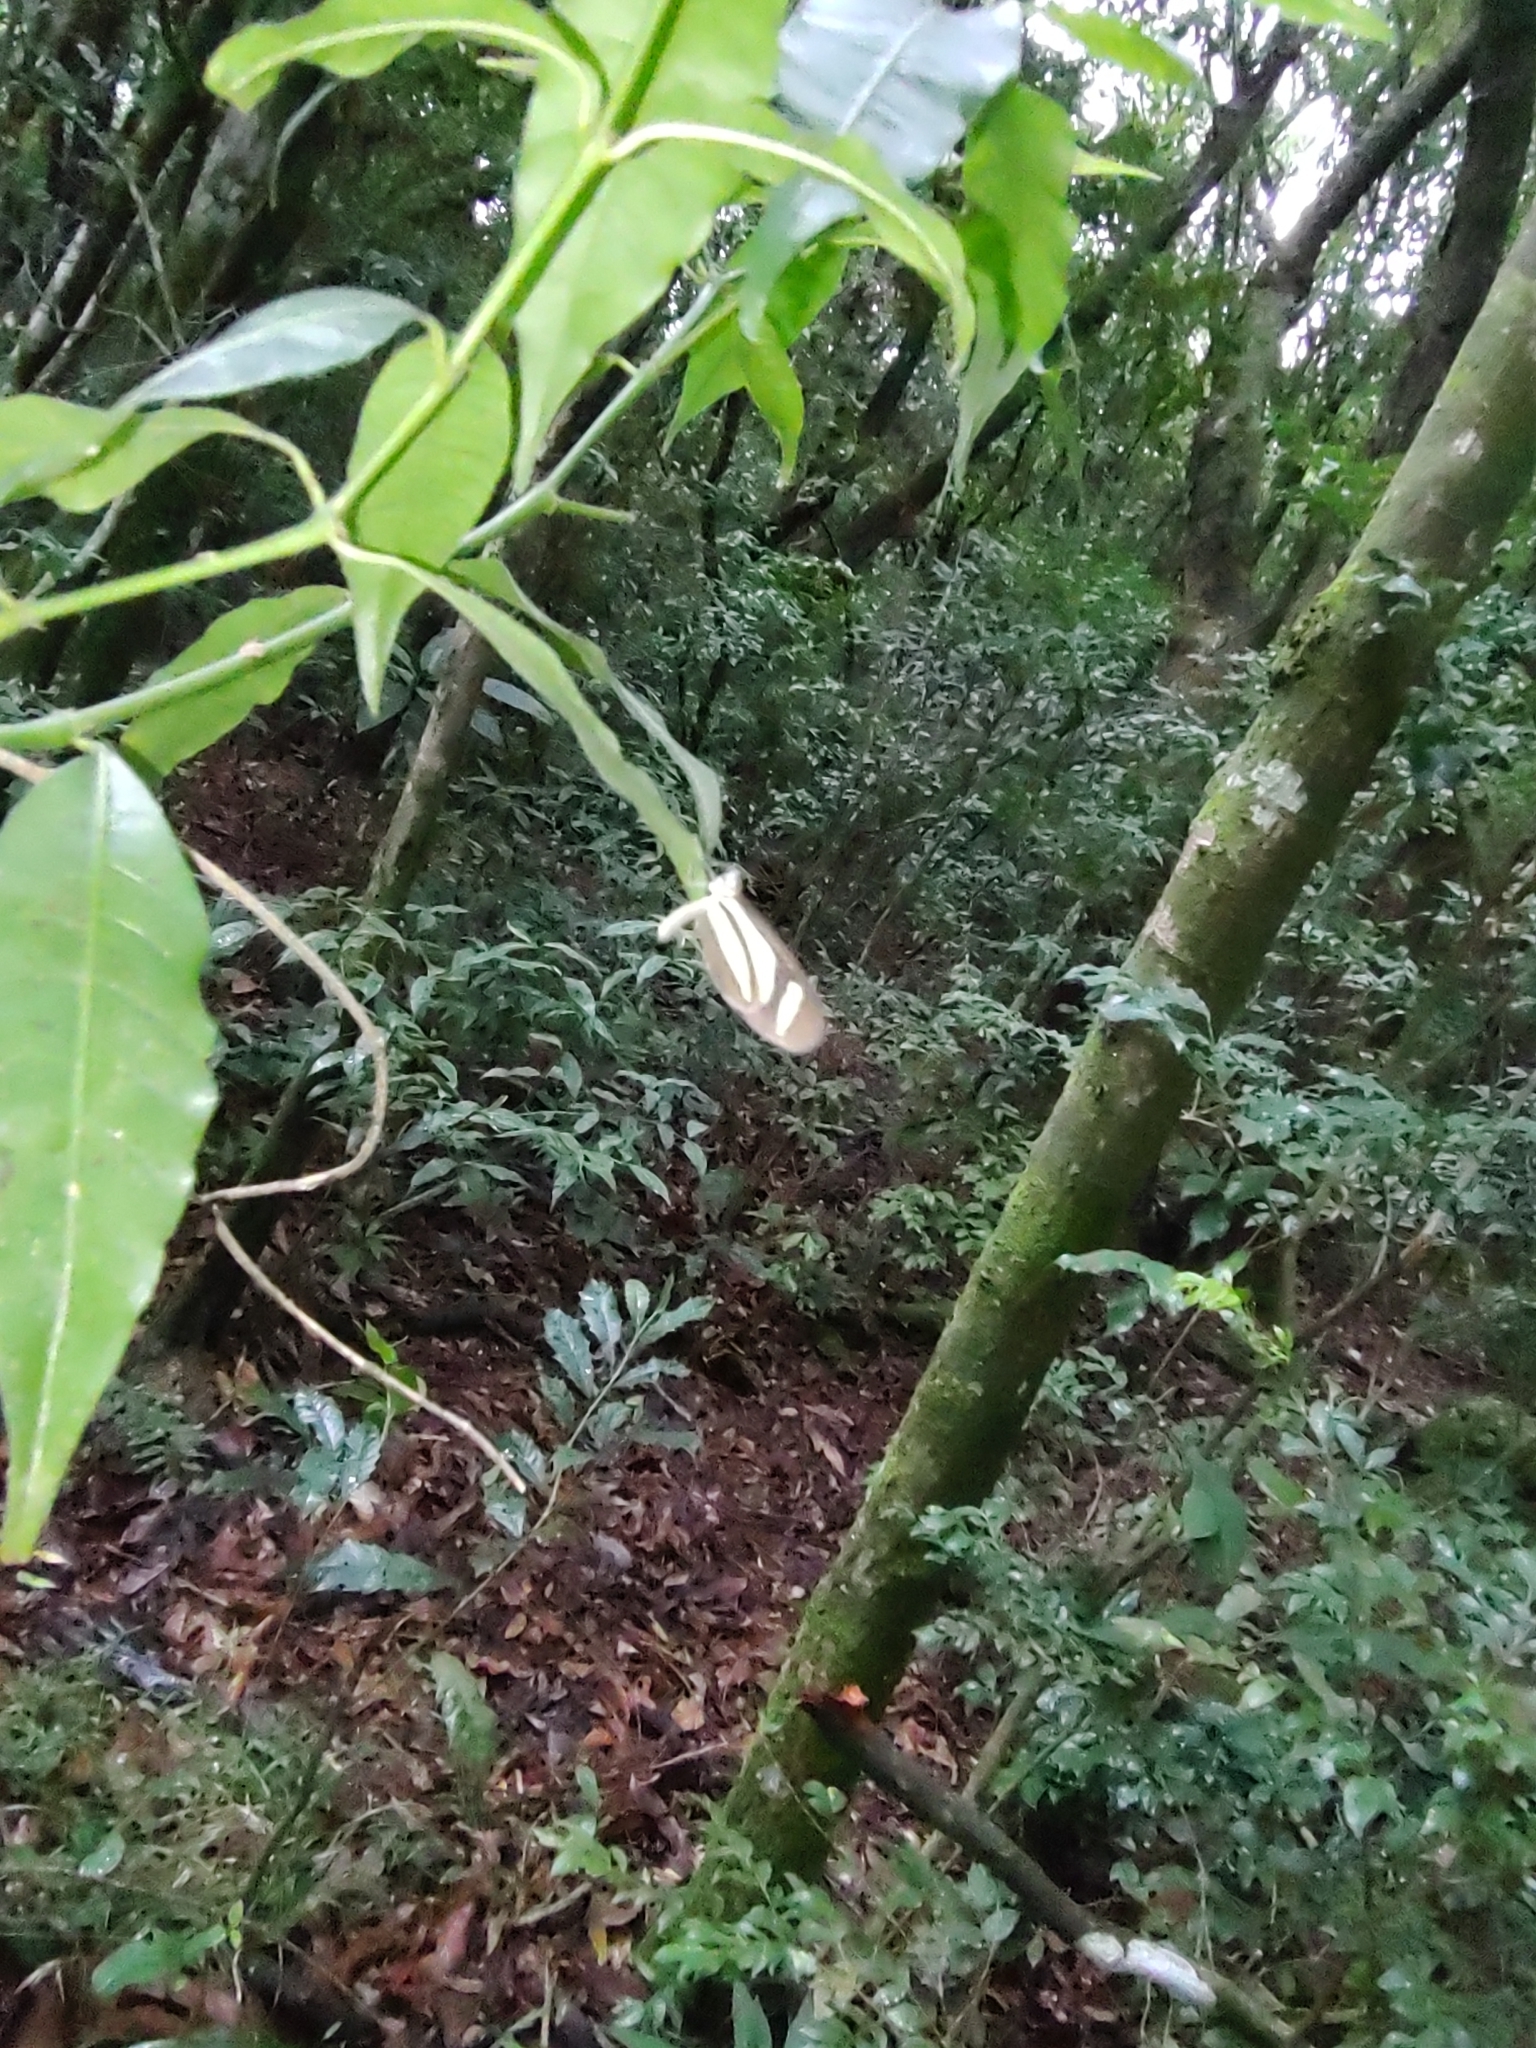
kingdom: Animalia
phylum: Arthropoda
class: Insecta
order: Lepidoptera
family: Nymphalidae
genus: Aeria
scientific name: Aeria olena
